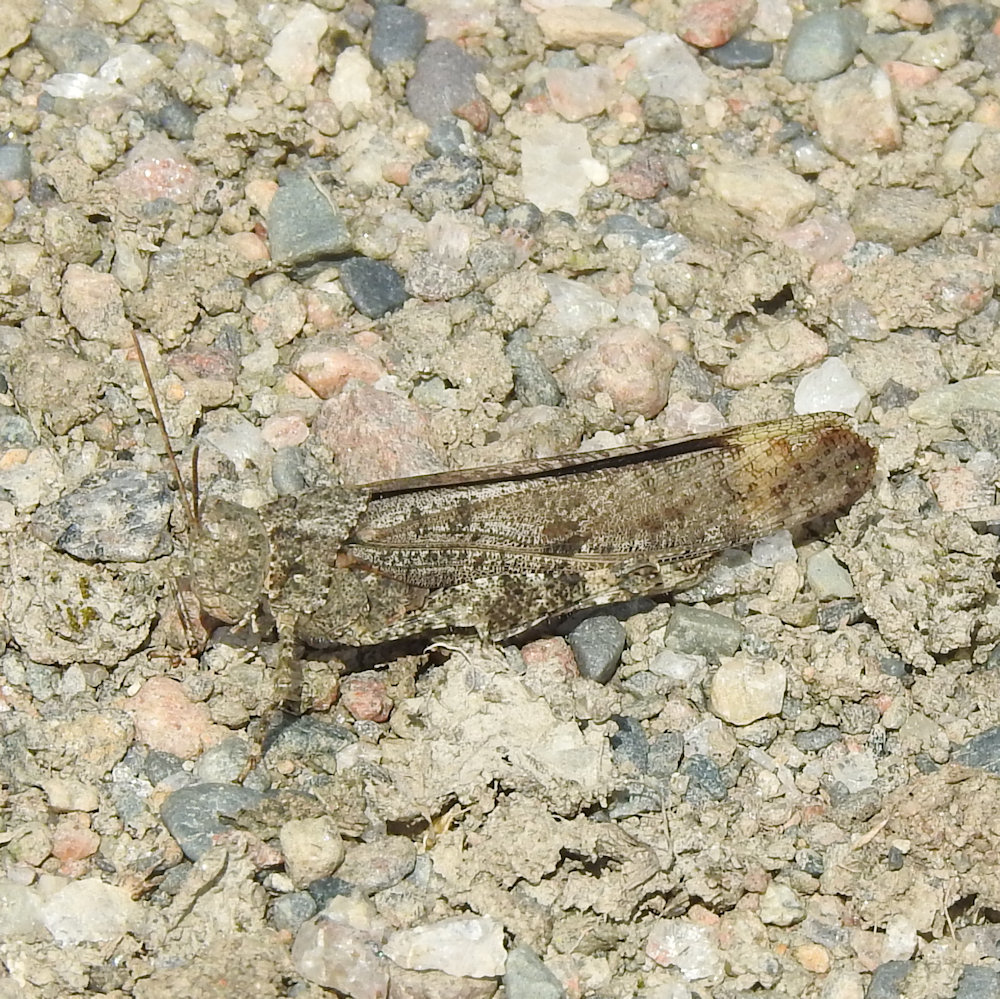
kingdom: Animalia
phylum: Arthropoda
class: Insecta
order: Orthoptera
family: Acrididae
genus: Dissosteira
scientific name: Dissosteira carolina
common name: Carolina grasshopper
